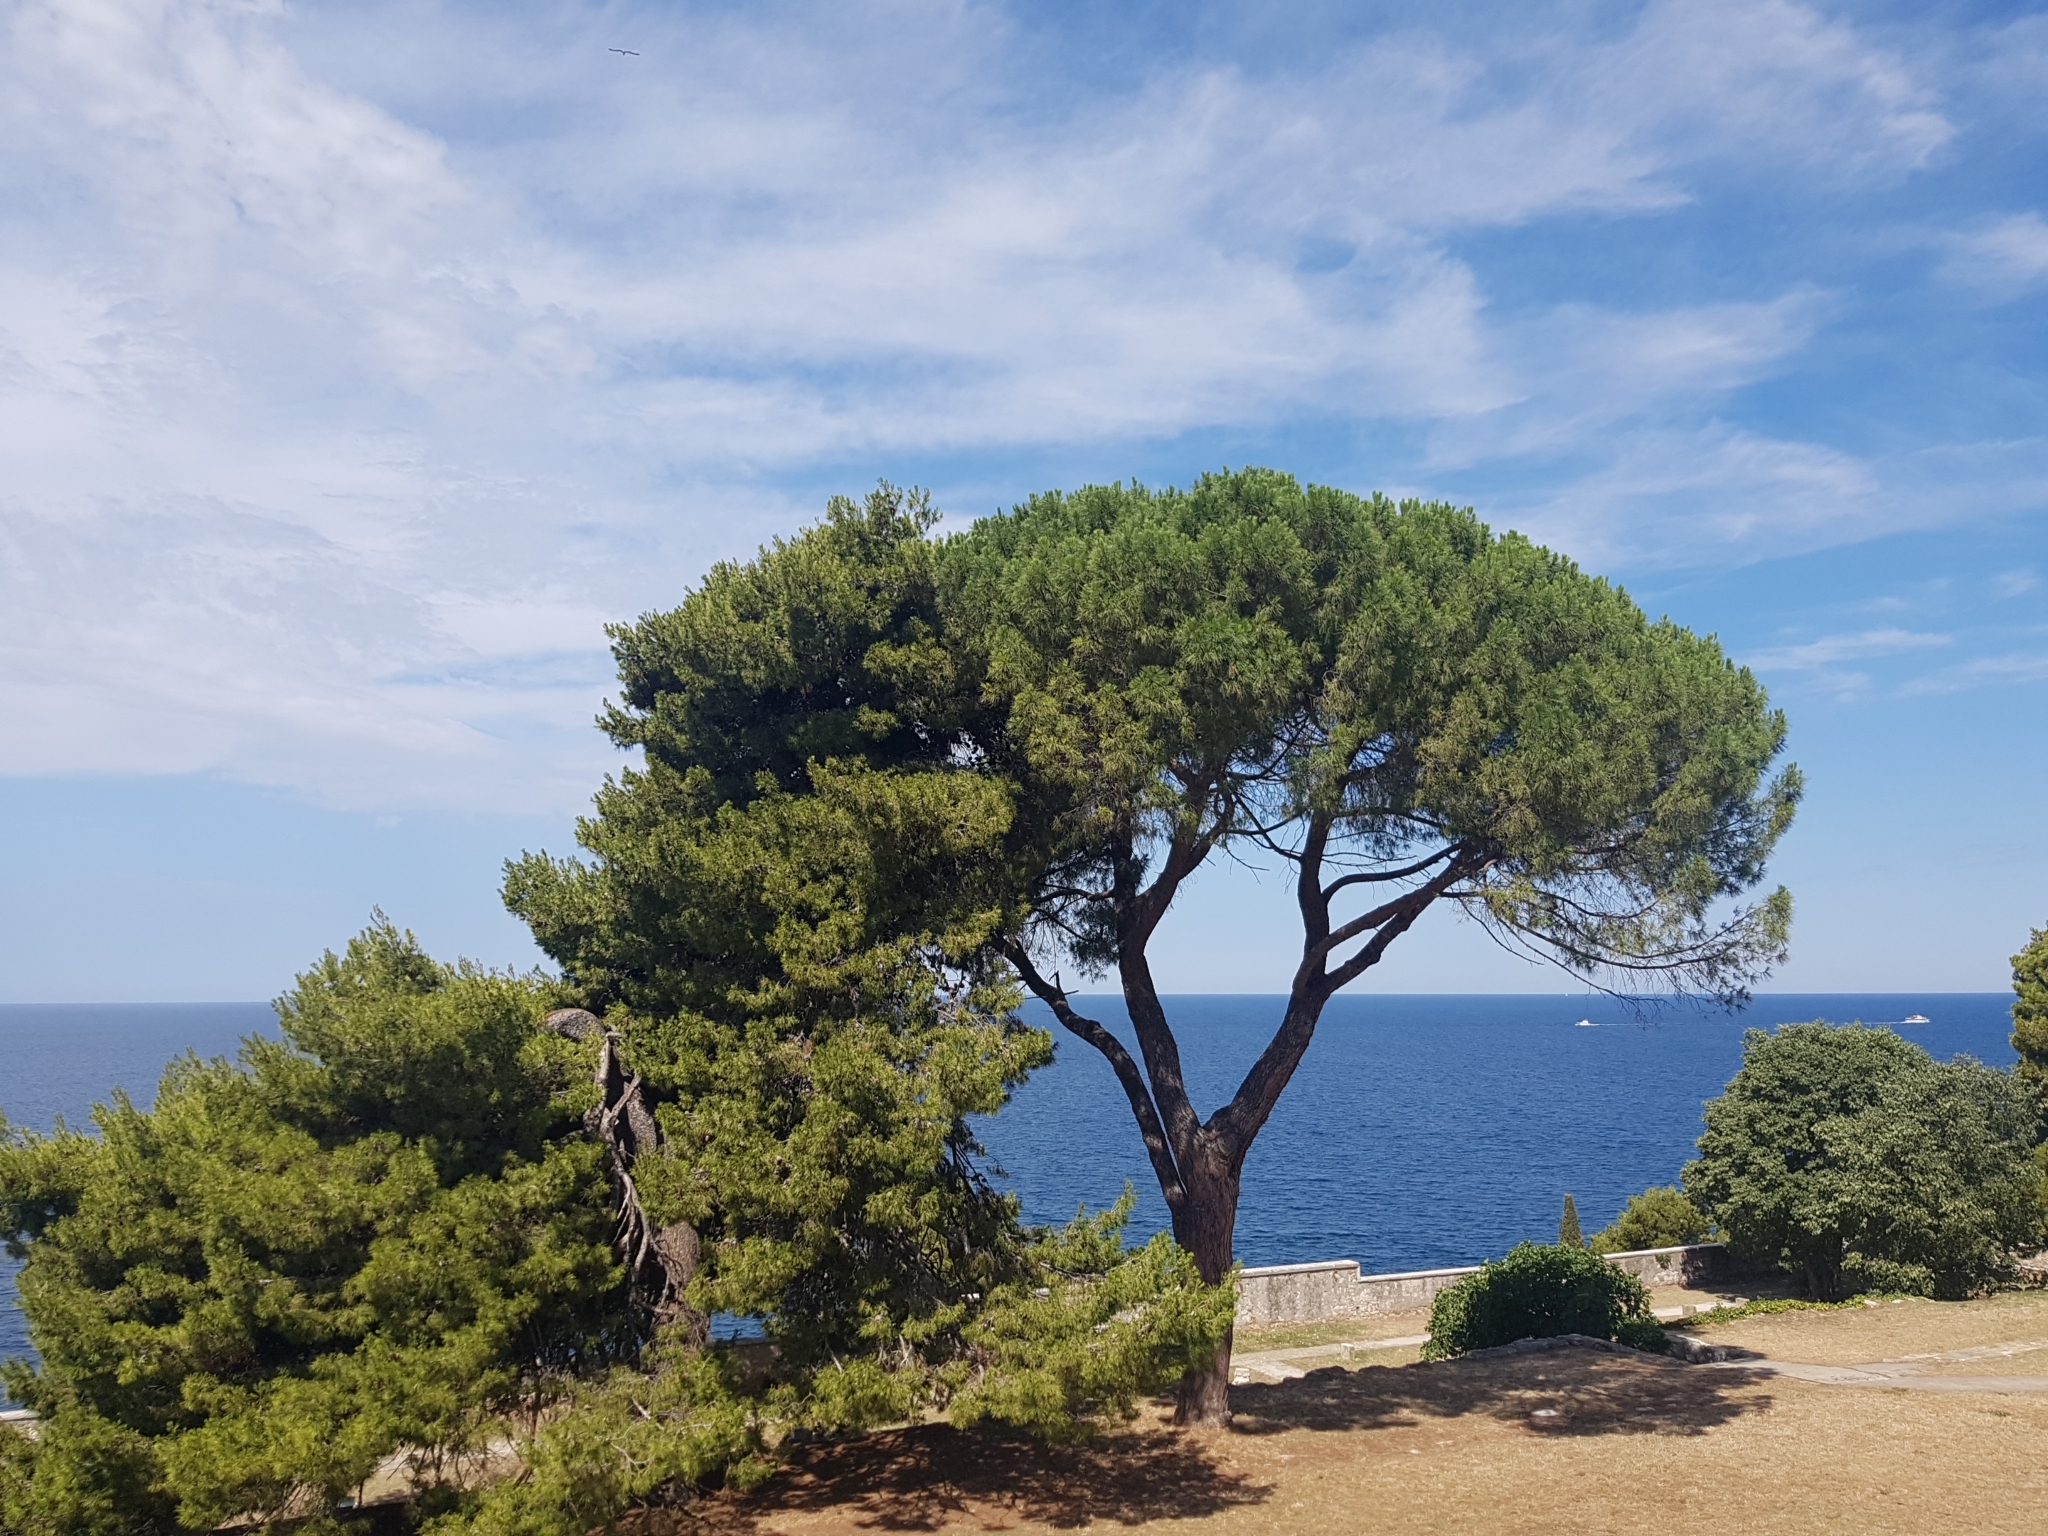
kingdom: Plantae
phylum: Tracheophyta
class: Pinopsida
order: Pinales
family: Pinaceae
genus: Pinus
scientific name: Pinus halepensis
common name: Aleppo pine
